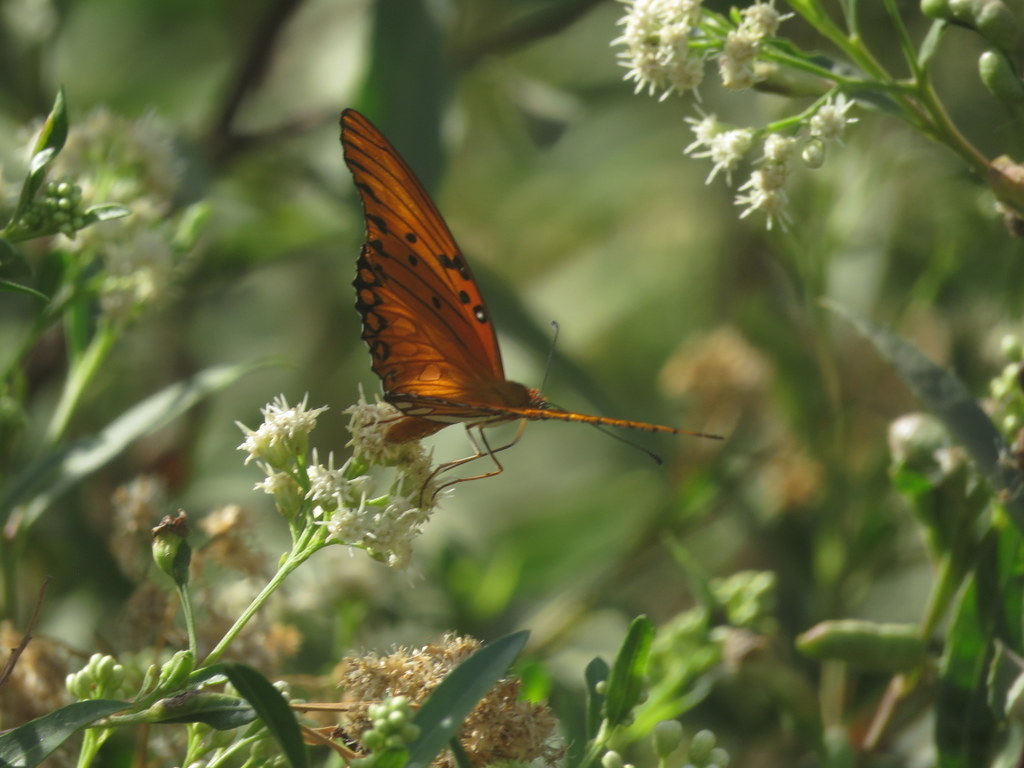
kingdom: Animalia
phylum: Arthropoda
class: Insecta
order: Lepidoptera
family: Nymphalidae
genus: Dione
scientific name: Dione vanillae
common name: Gulf fritillary
